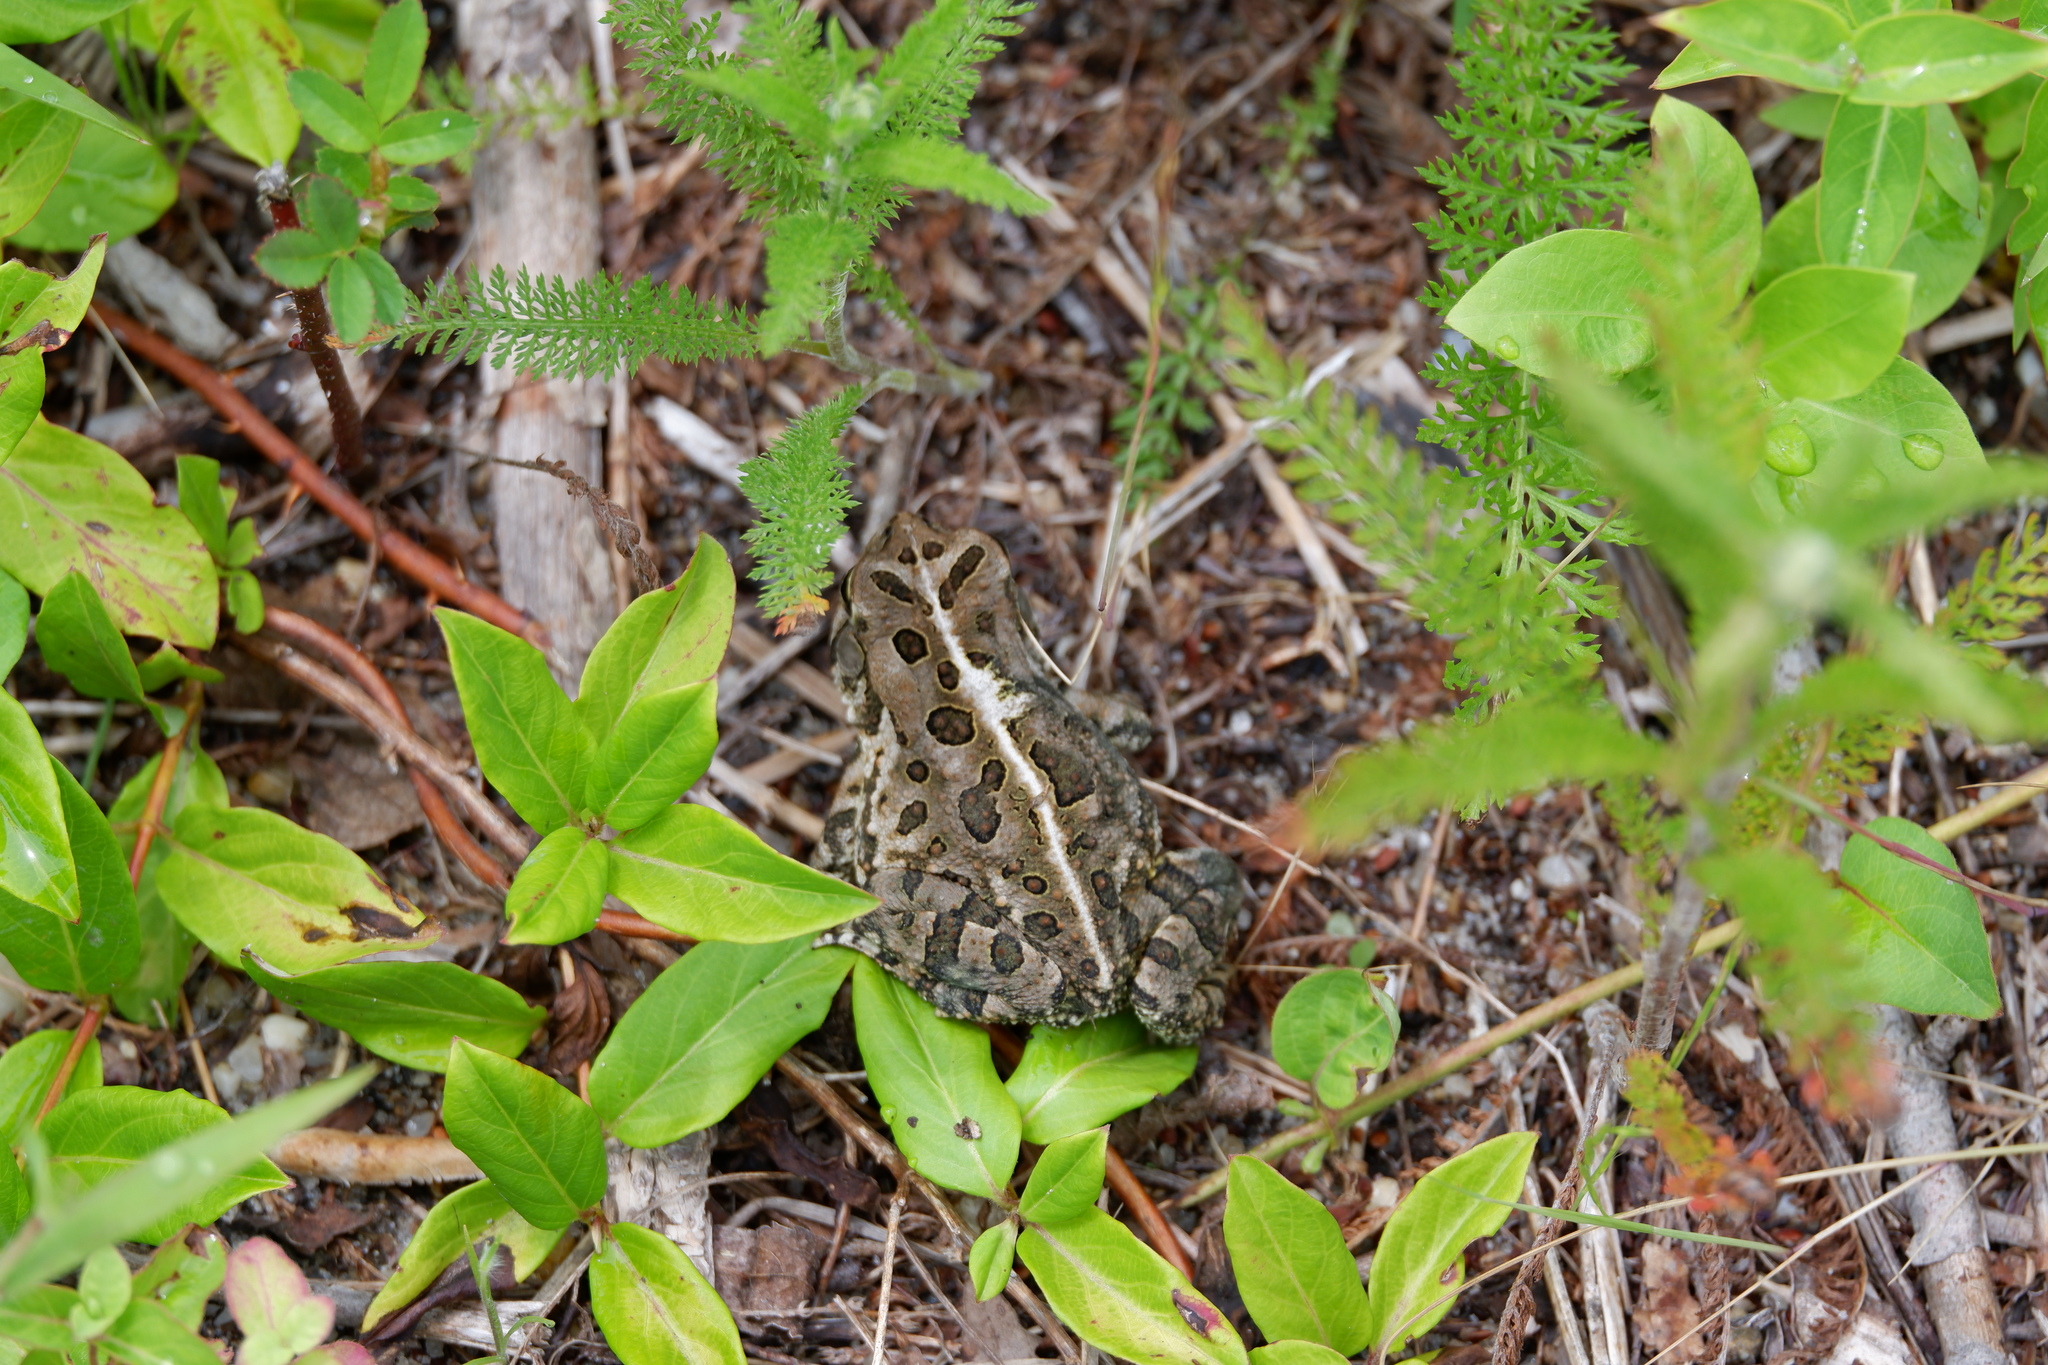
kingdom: Animalia
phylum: Chordata
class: Amphibia
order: Anura
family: Bufonidae
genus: Anaxyrus
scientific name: Anaxyrus fowleri
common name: Fowler's toad
